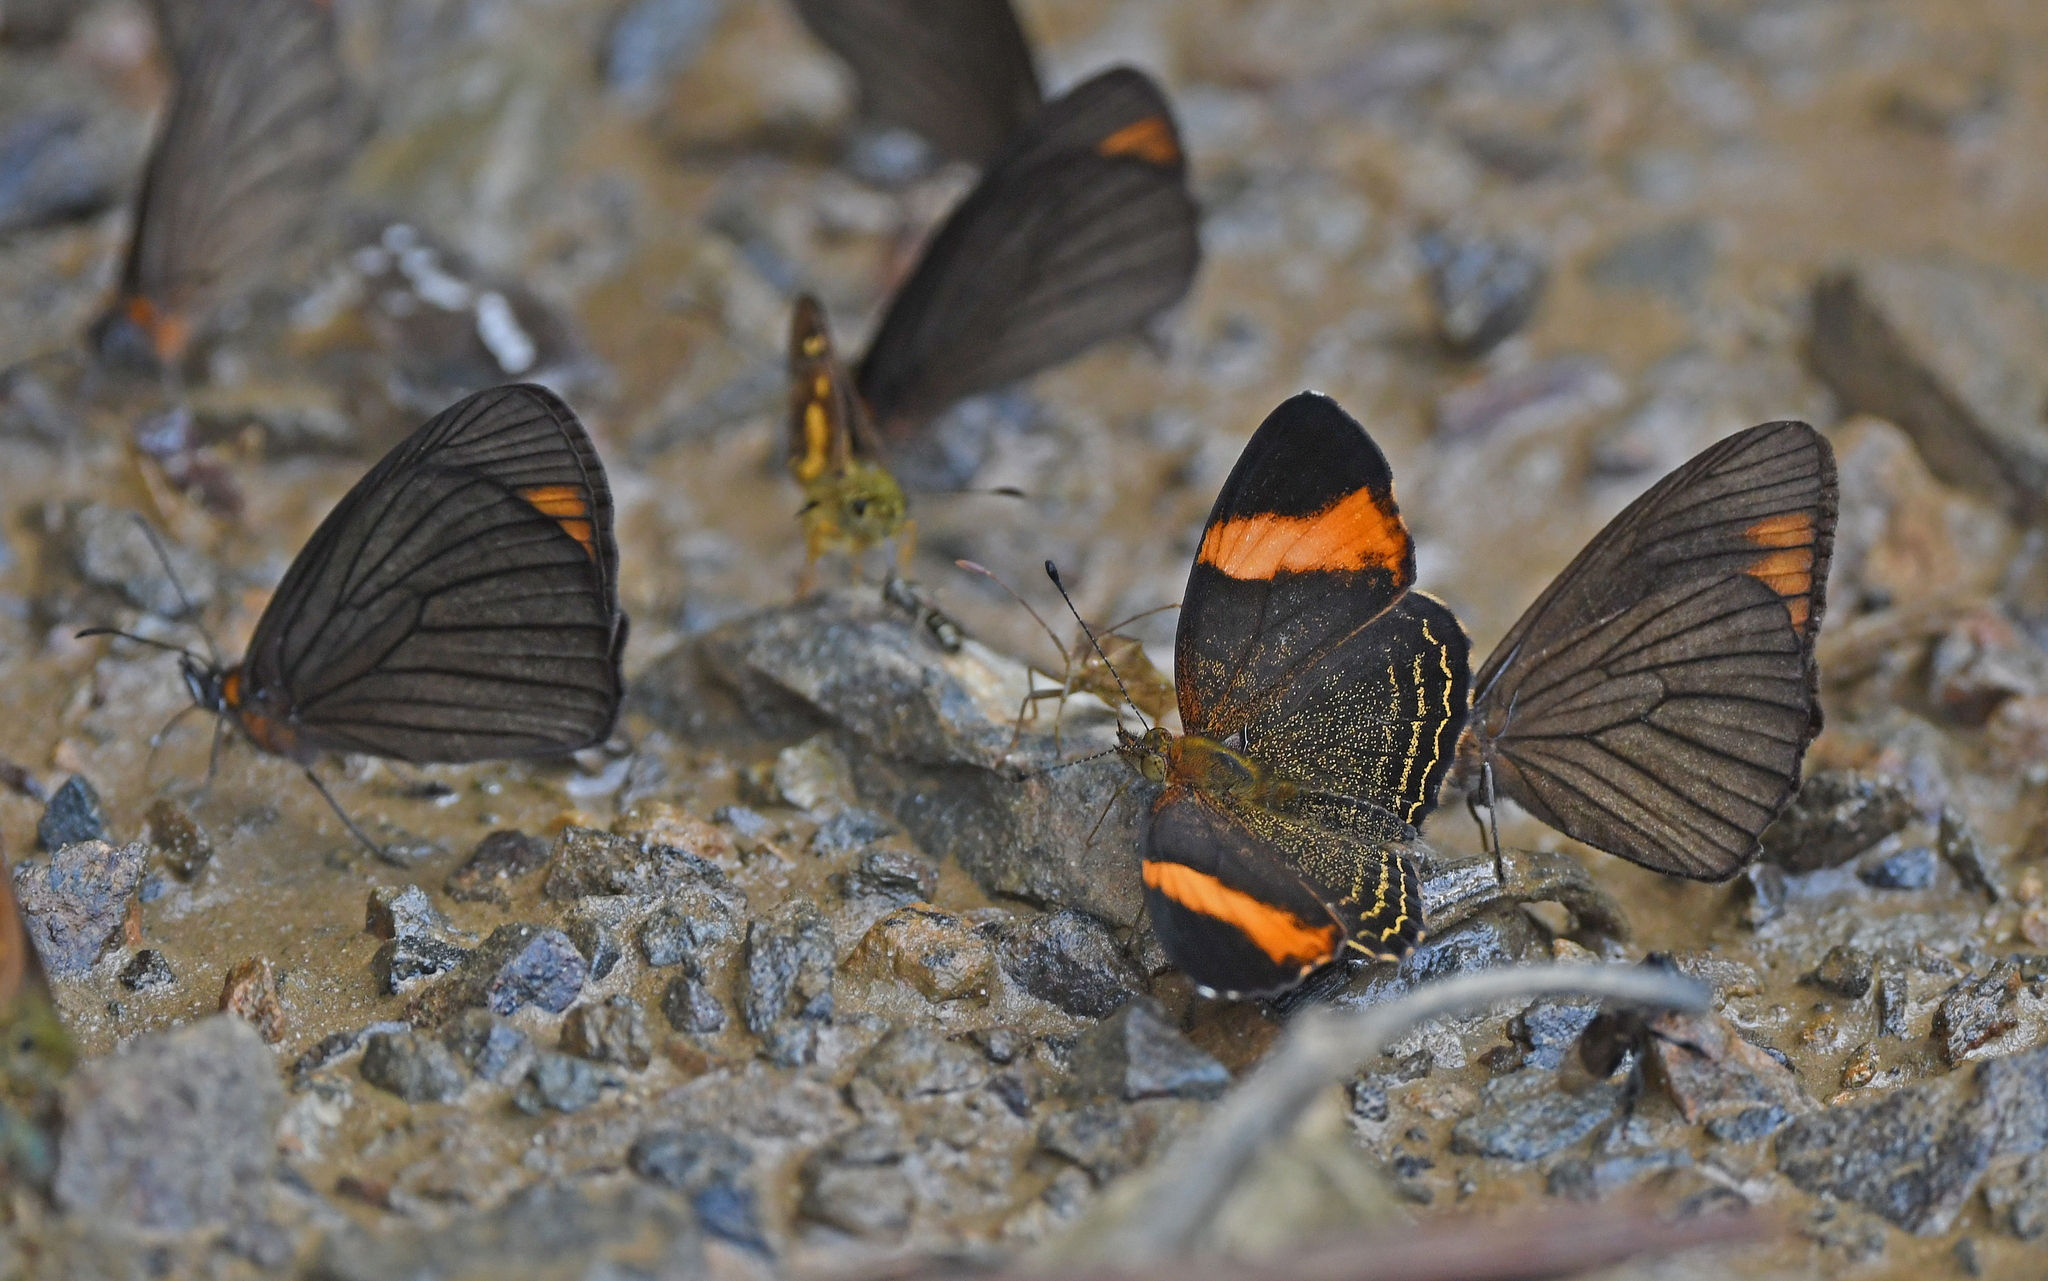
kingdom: Animalia
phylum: Arthropoda
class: Insecta
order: Lepidoptera
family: Nymphalidae
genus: Telenassa
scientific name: Telenassa jana
